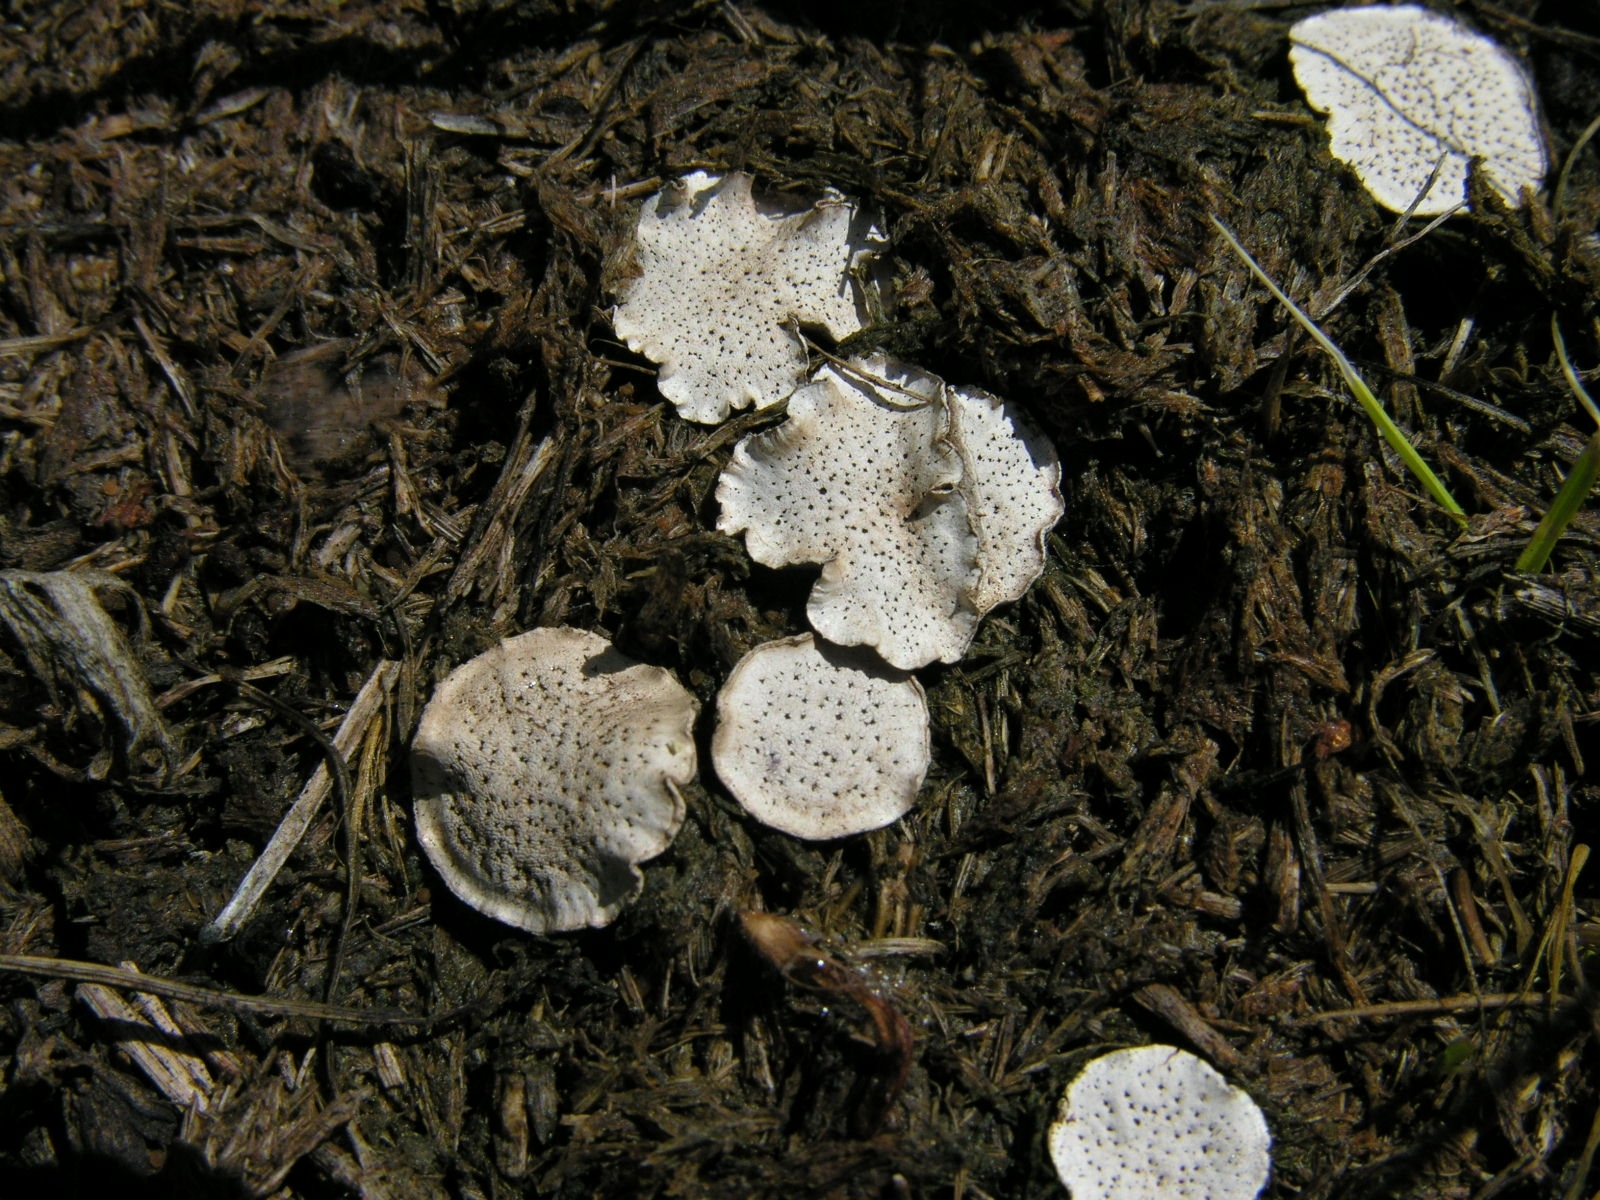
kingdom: Fungi
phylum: Ascomycota
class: Sordariomycetes
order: Xylariales
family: Xylariaceae
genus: Poronia
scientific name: Poronia punctata
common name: Nail fungus
